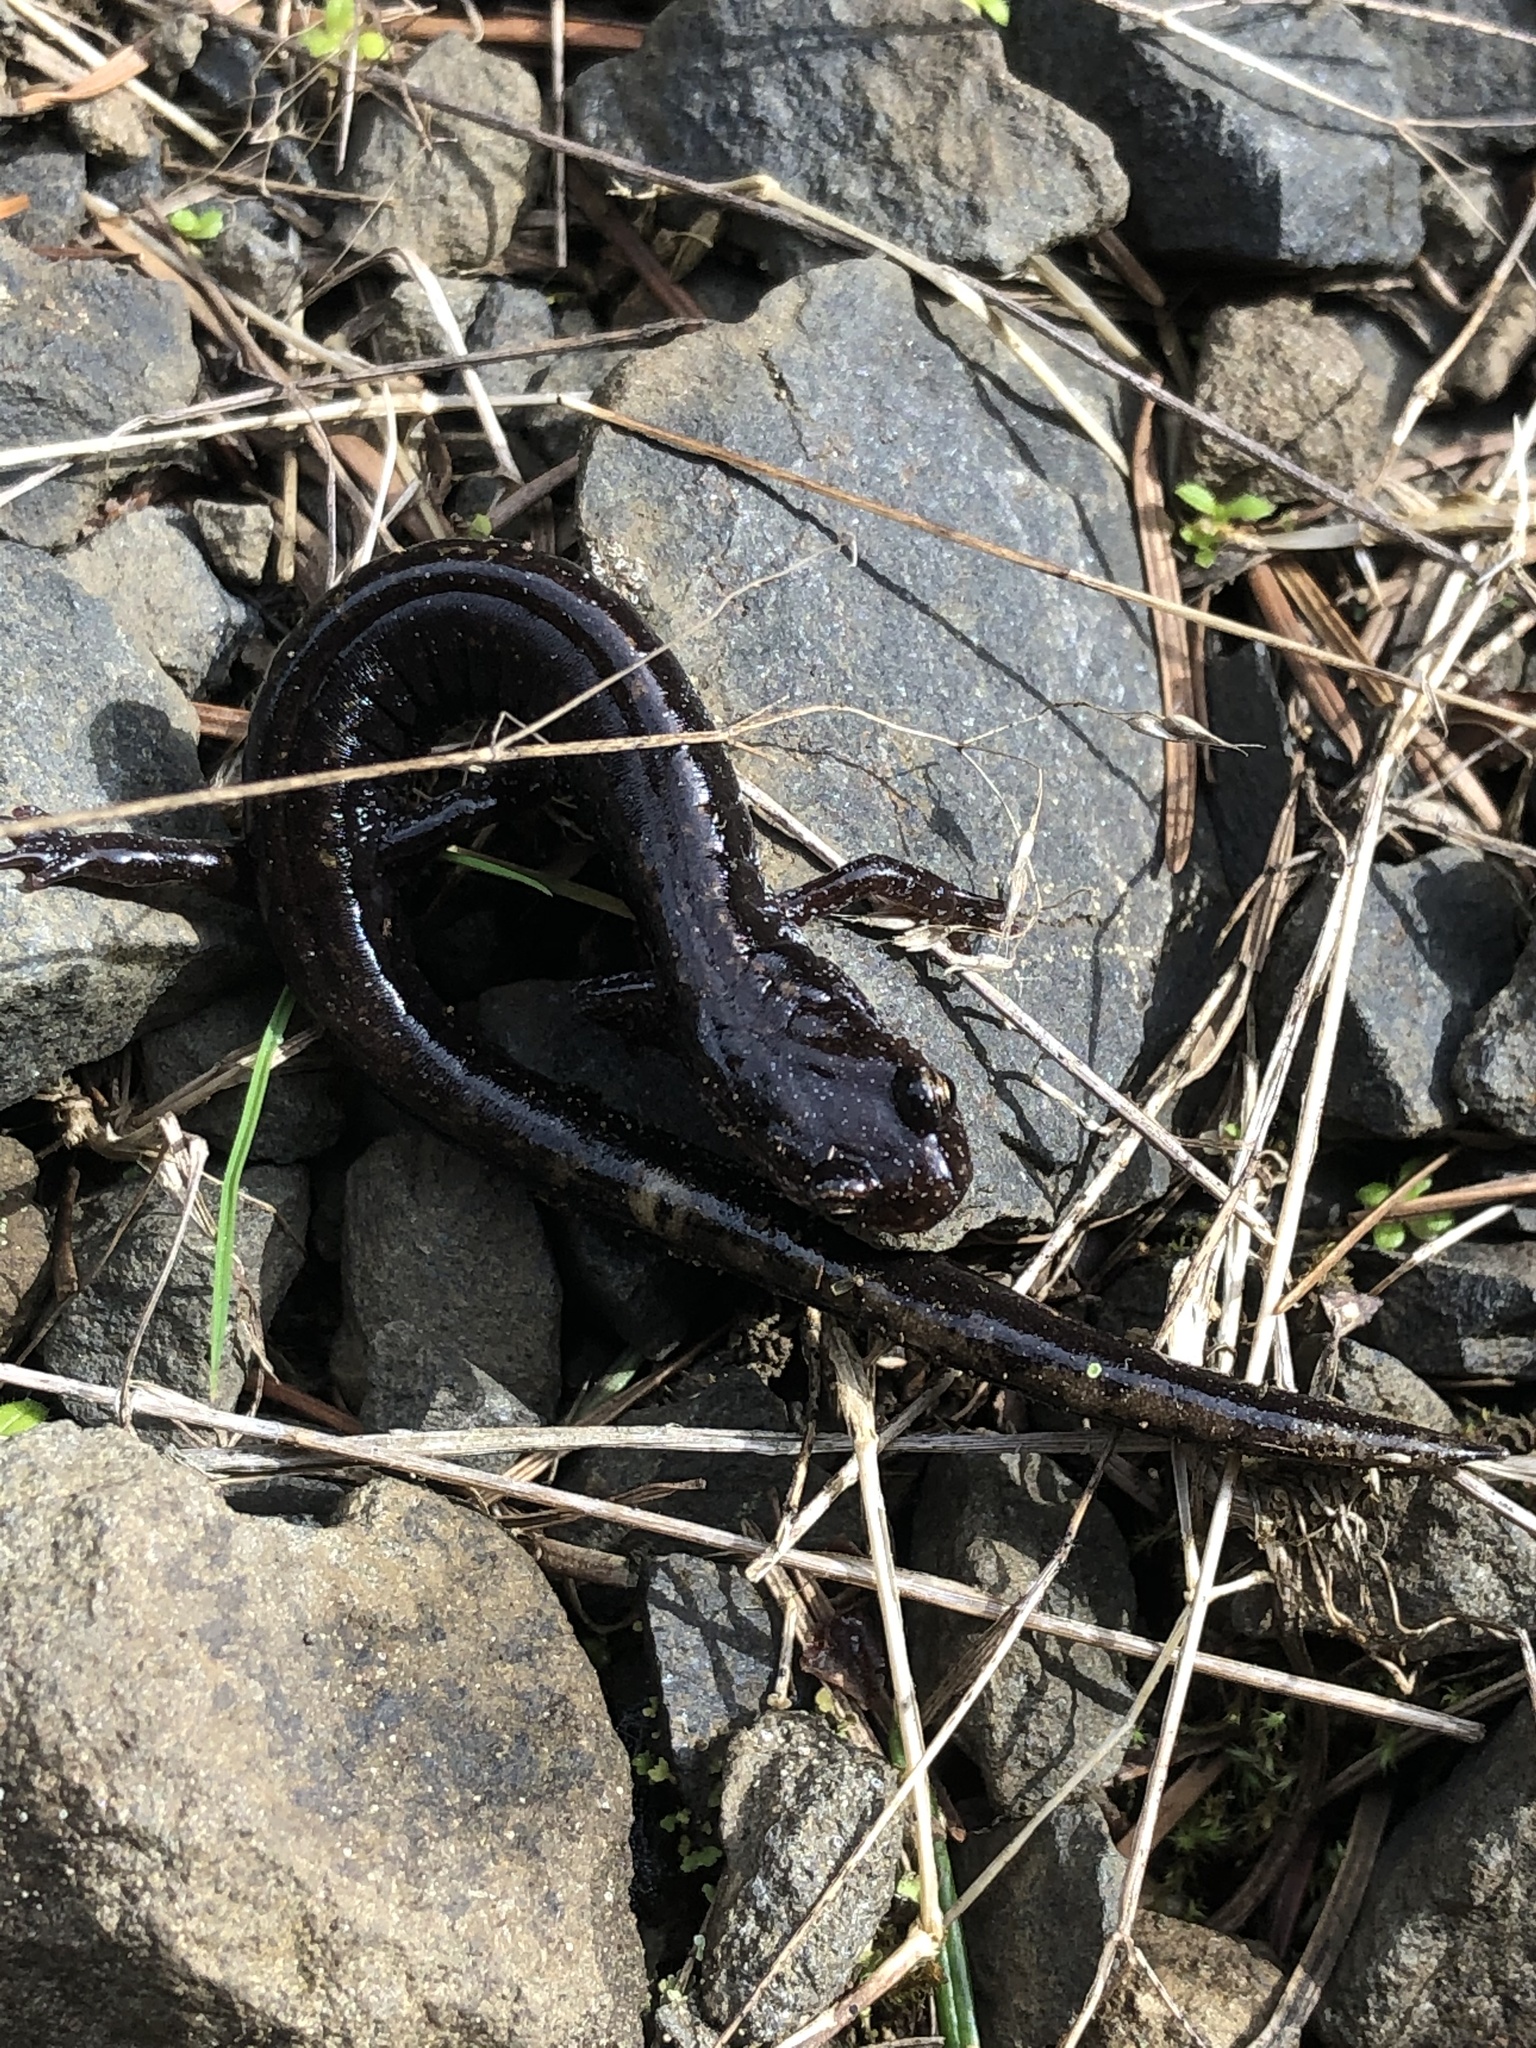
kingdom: Animalia
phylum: Chordata
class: Amphibia
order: Caudata
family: Plethodontidae
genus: Plethodon
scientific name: Plethodon vehiculum
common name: Western red-backed salamander
